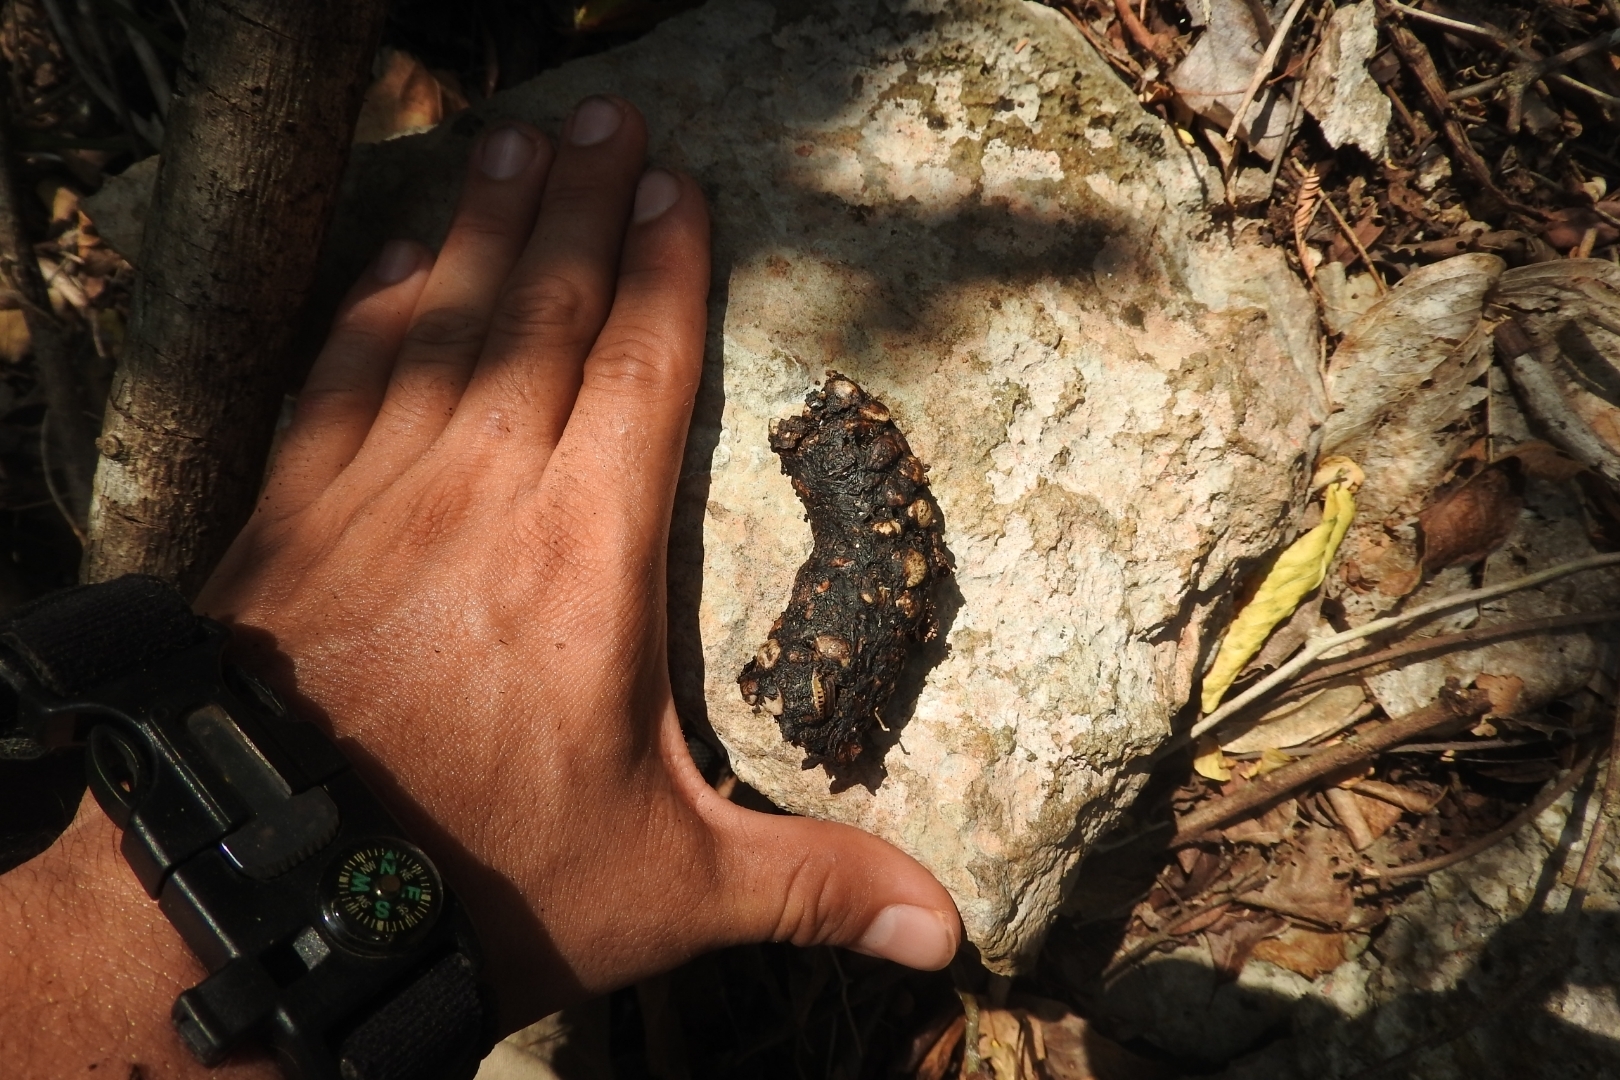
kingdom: Animalia
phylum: Chordata
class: Mammalia
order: Carnivora
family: Canidae
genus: Urocyon
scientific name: Urocyon cinereoargenteus
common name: Gray fox
